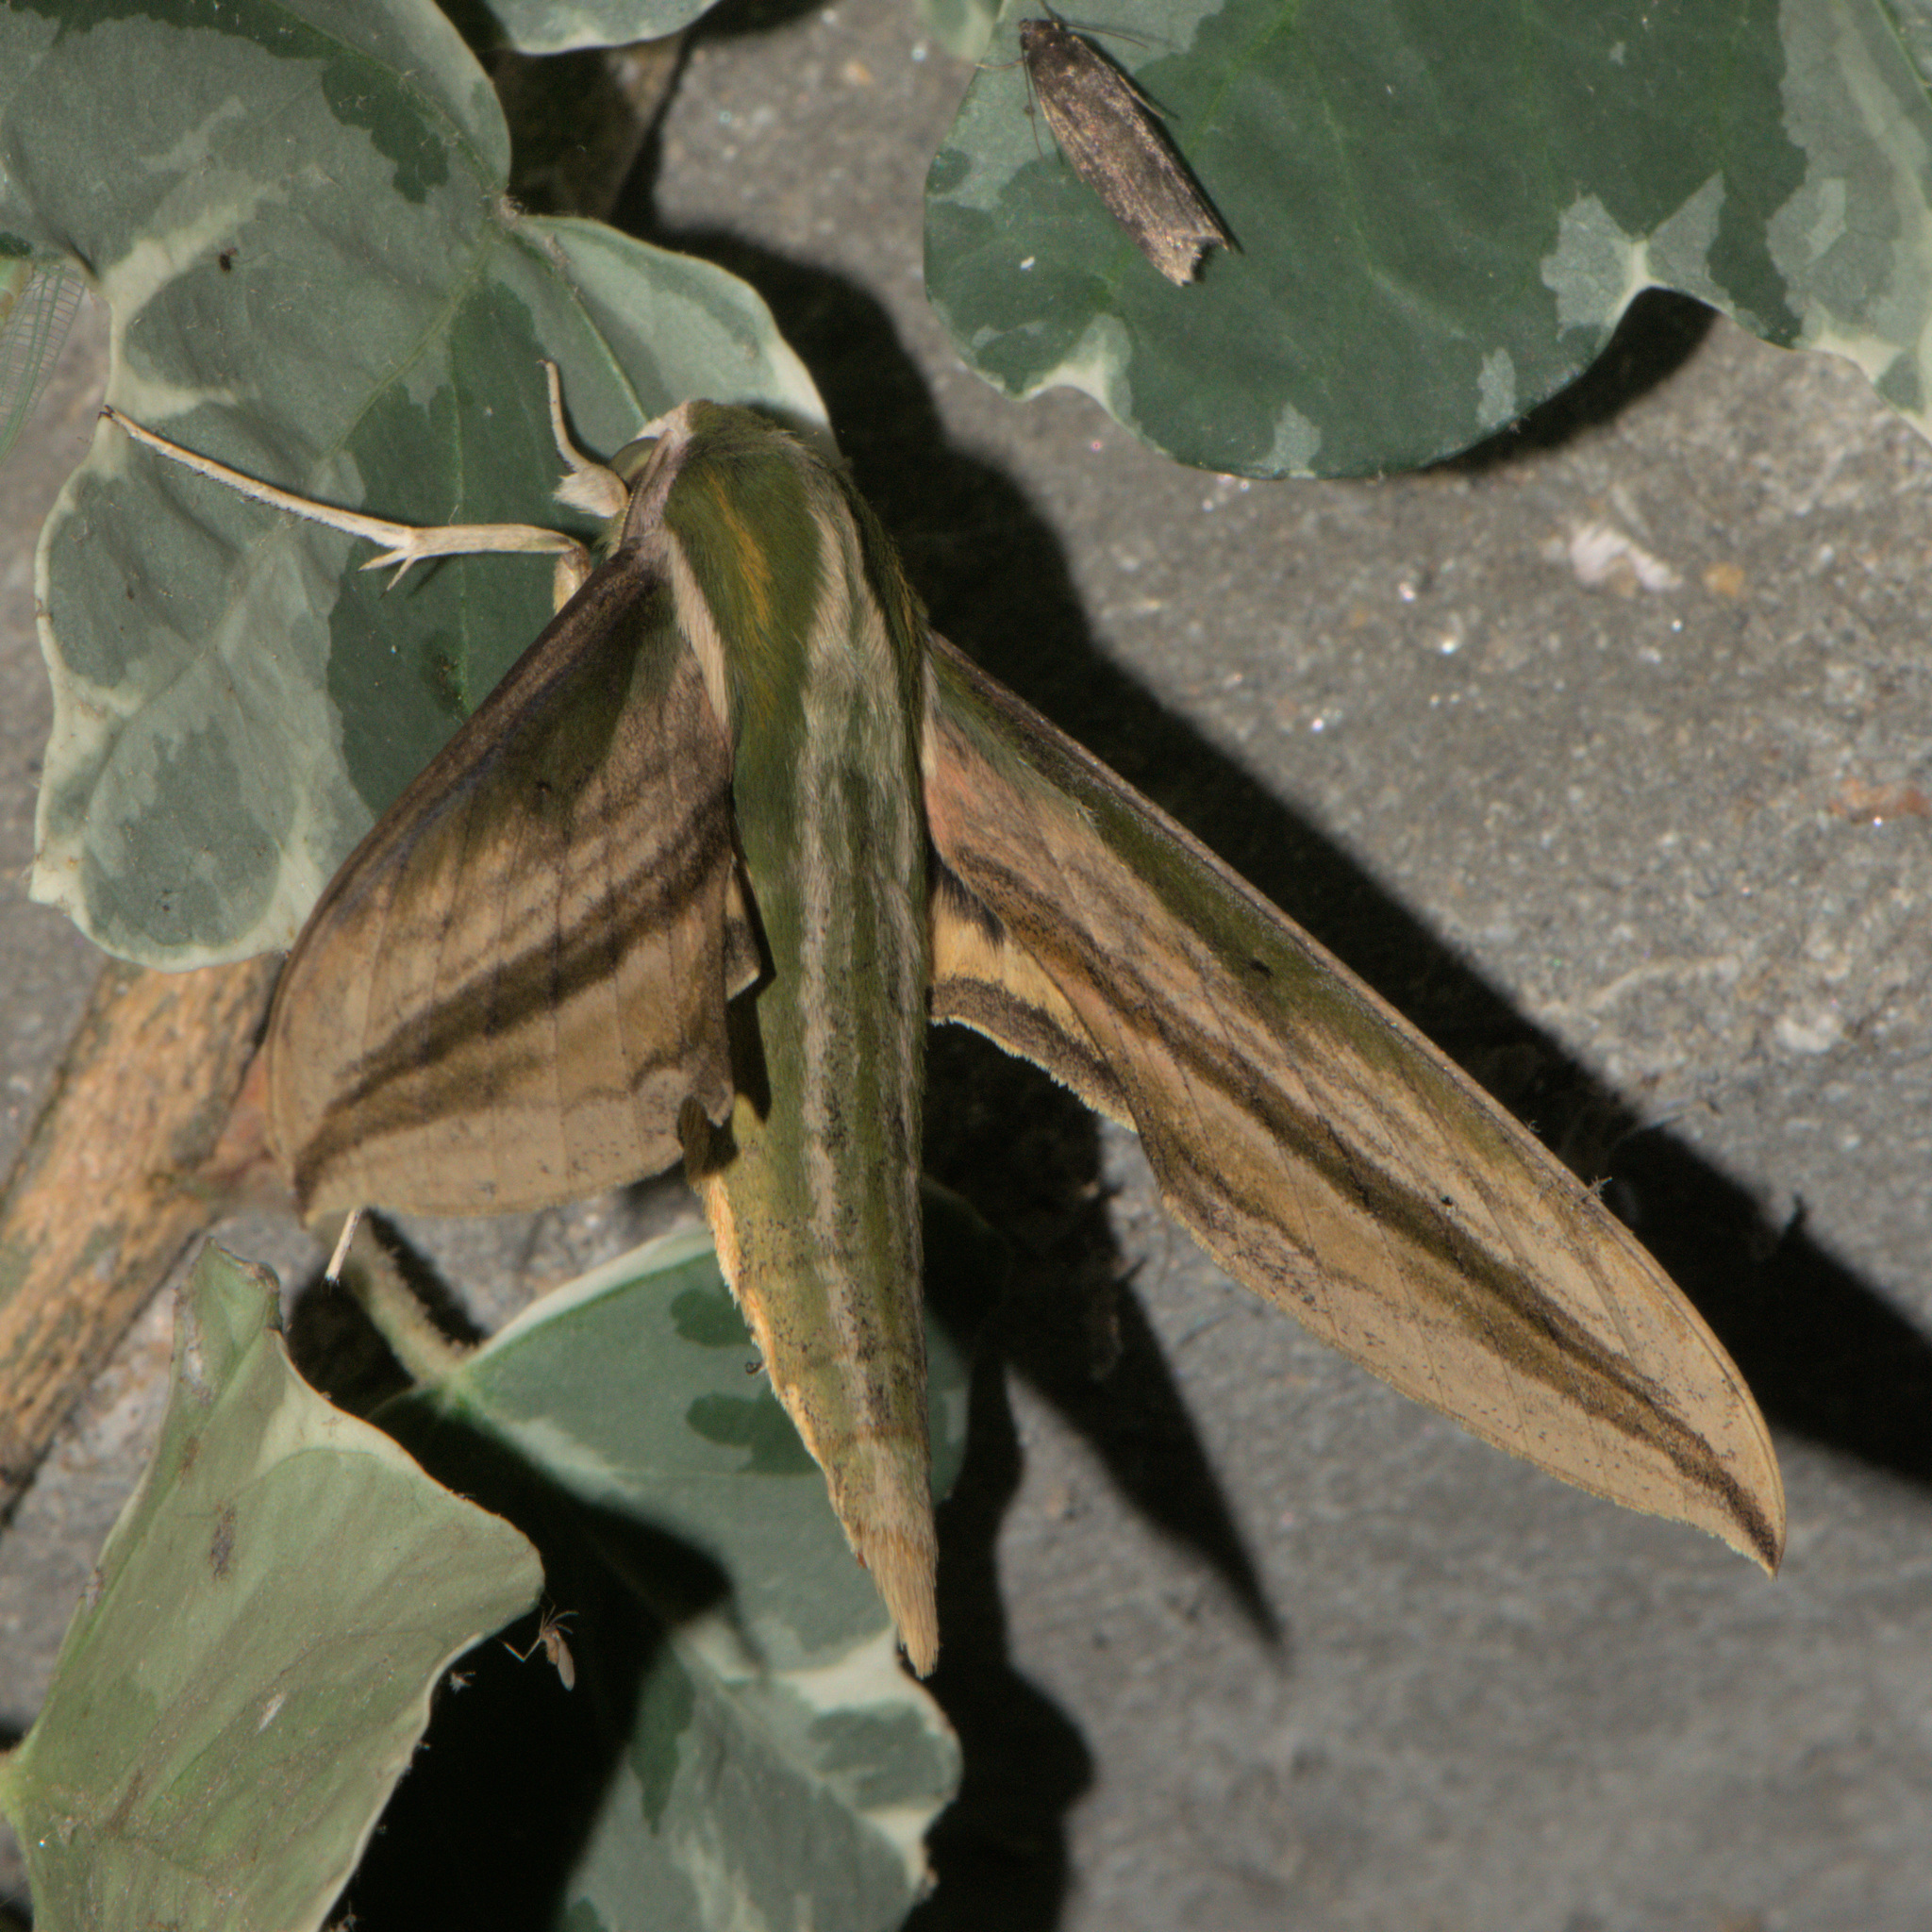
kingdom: Animalia
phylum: Arthropoda
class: Insecta
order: Lepidoptera
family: Sphingidae
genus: Cechetra
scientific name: Cechetra lineosa
